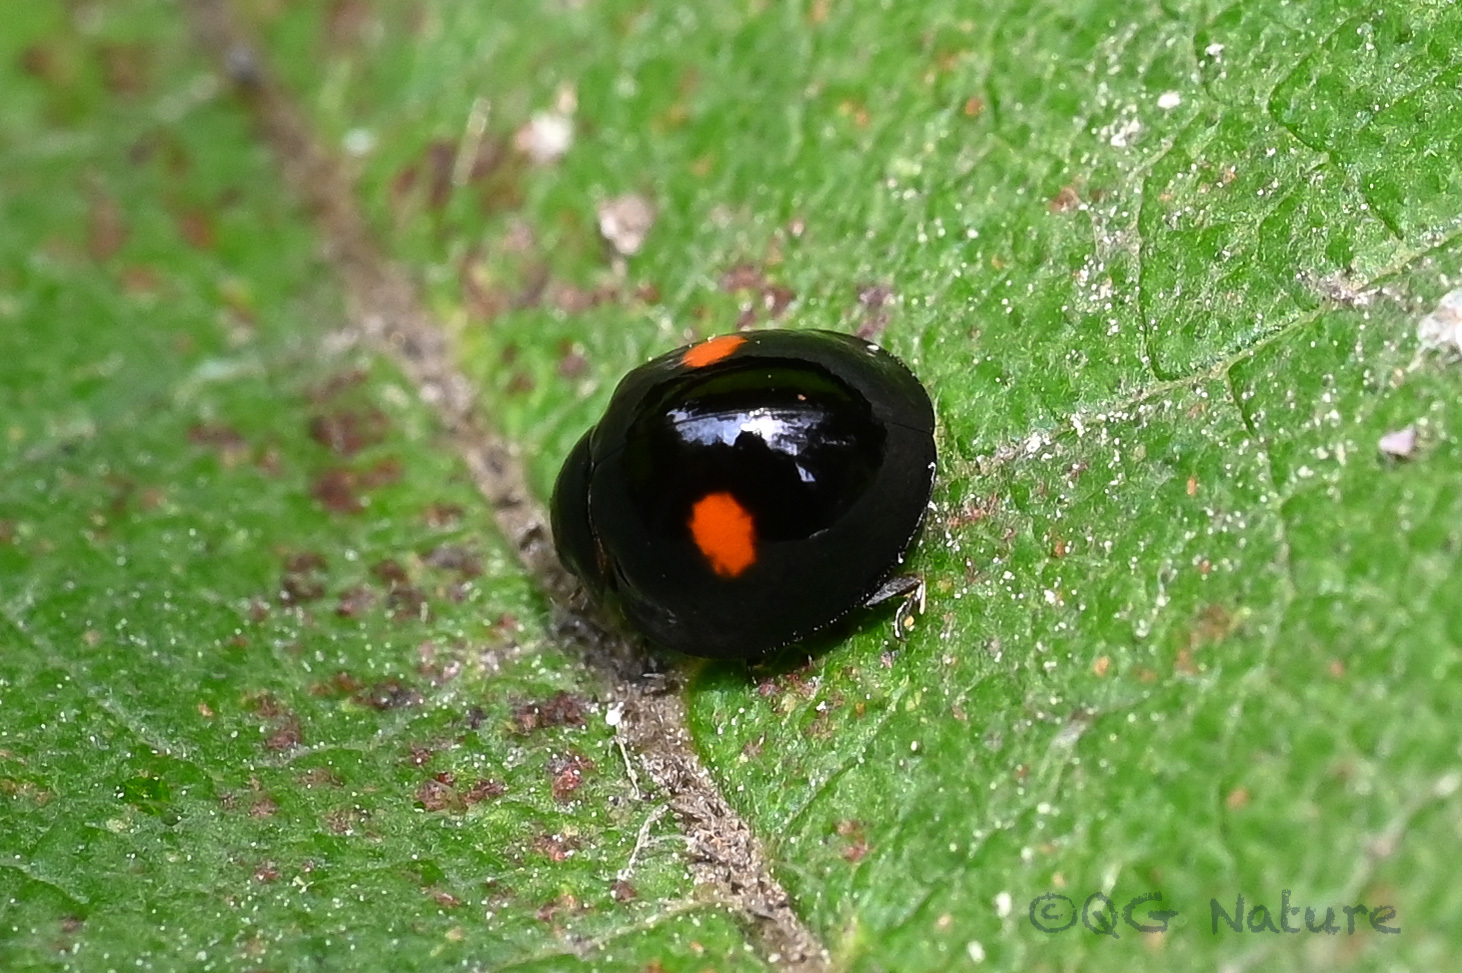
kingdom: Animalia
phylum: Arthropoda
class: Insecta
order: Coleoptera
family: Coccinellidae
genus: Chilocorus
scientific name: Chilocorus kuwanae
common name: Ladybird beetle
